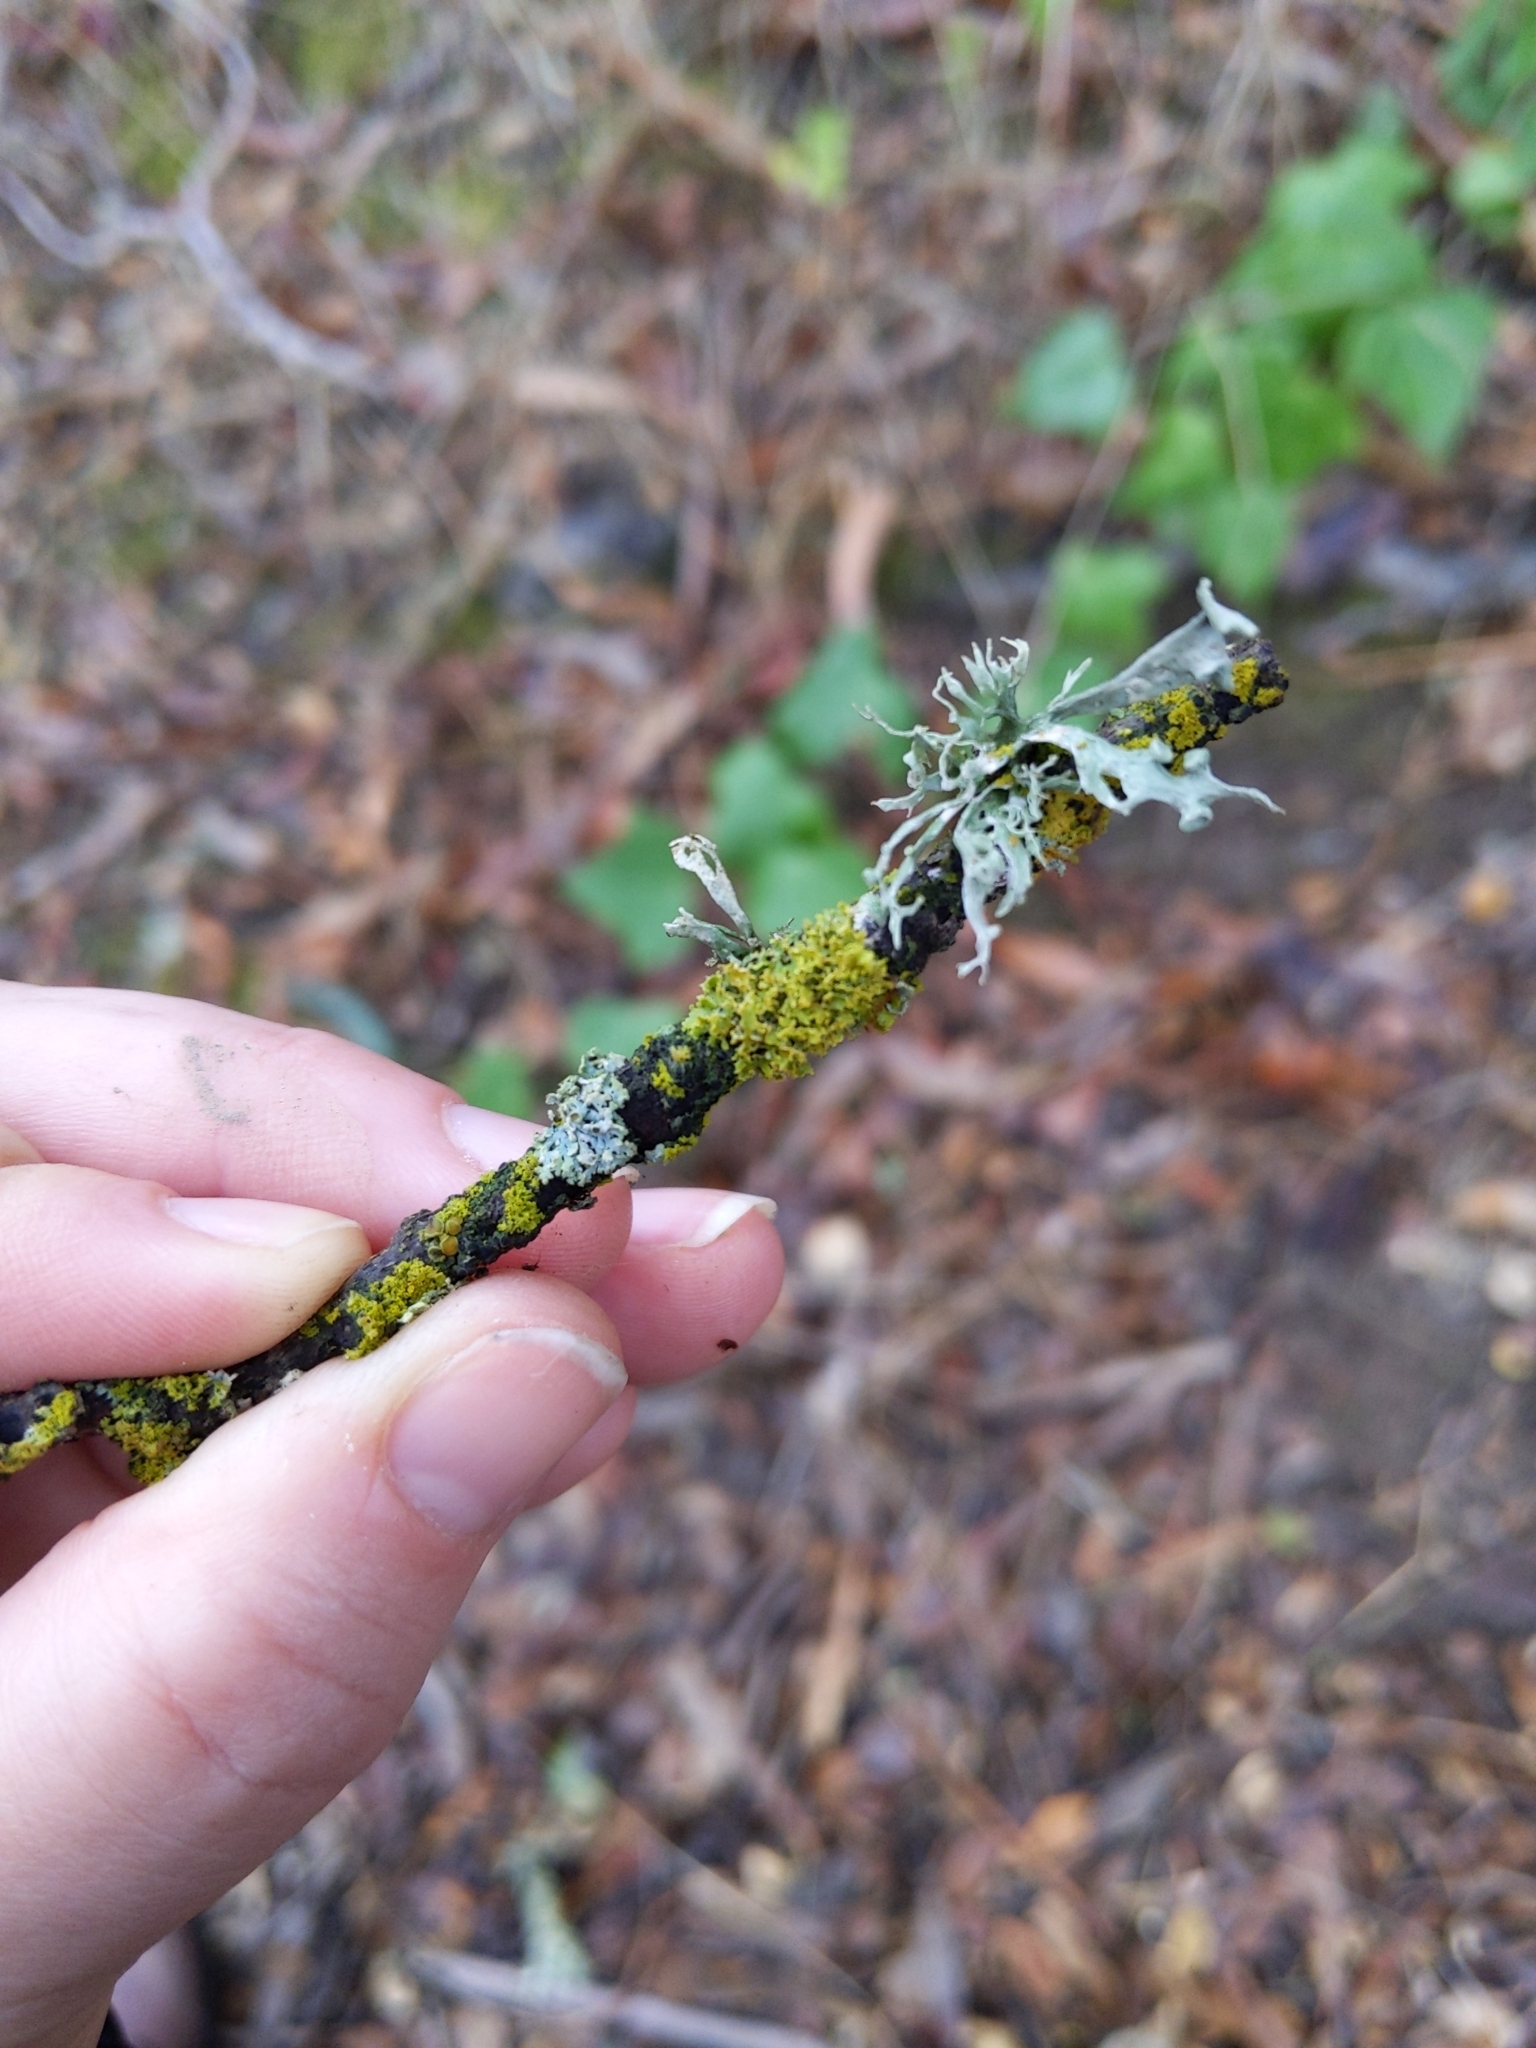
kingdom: Fungi
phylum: Ascomycota
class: Lecanoromycetes
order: Lecanorales
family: Ramalinaceae
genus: Ramalina
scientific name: Ramalina leptocarpha
